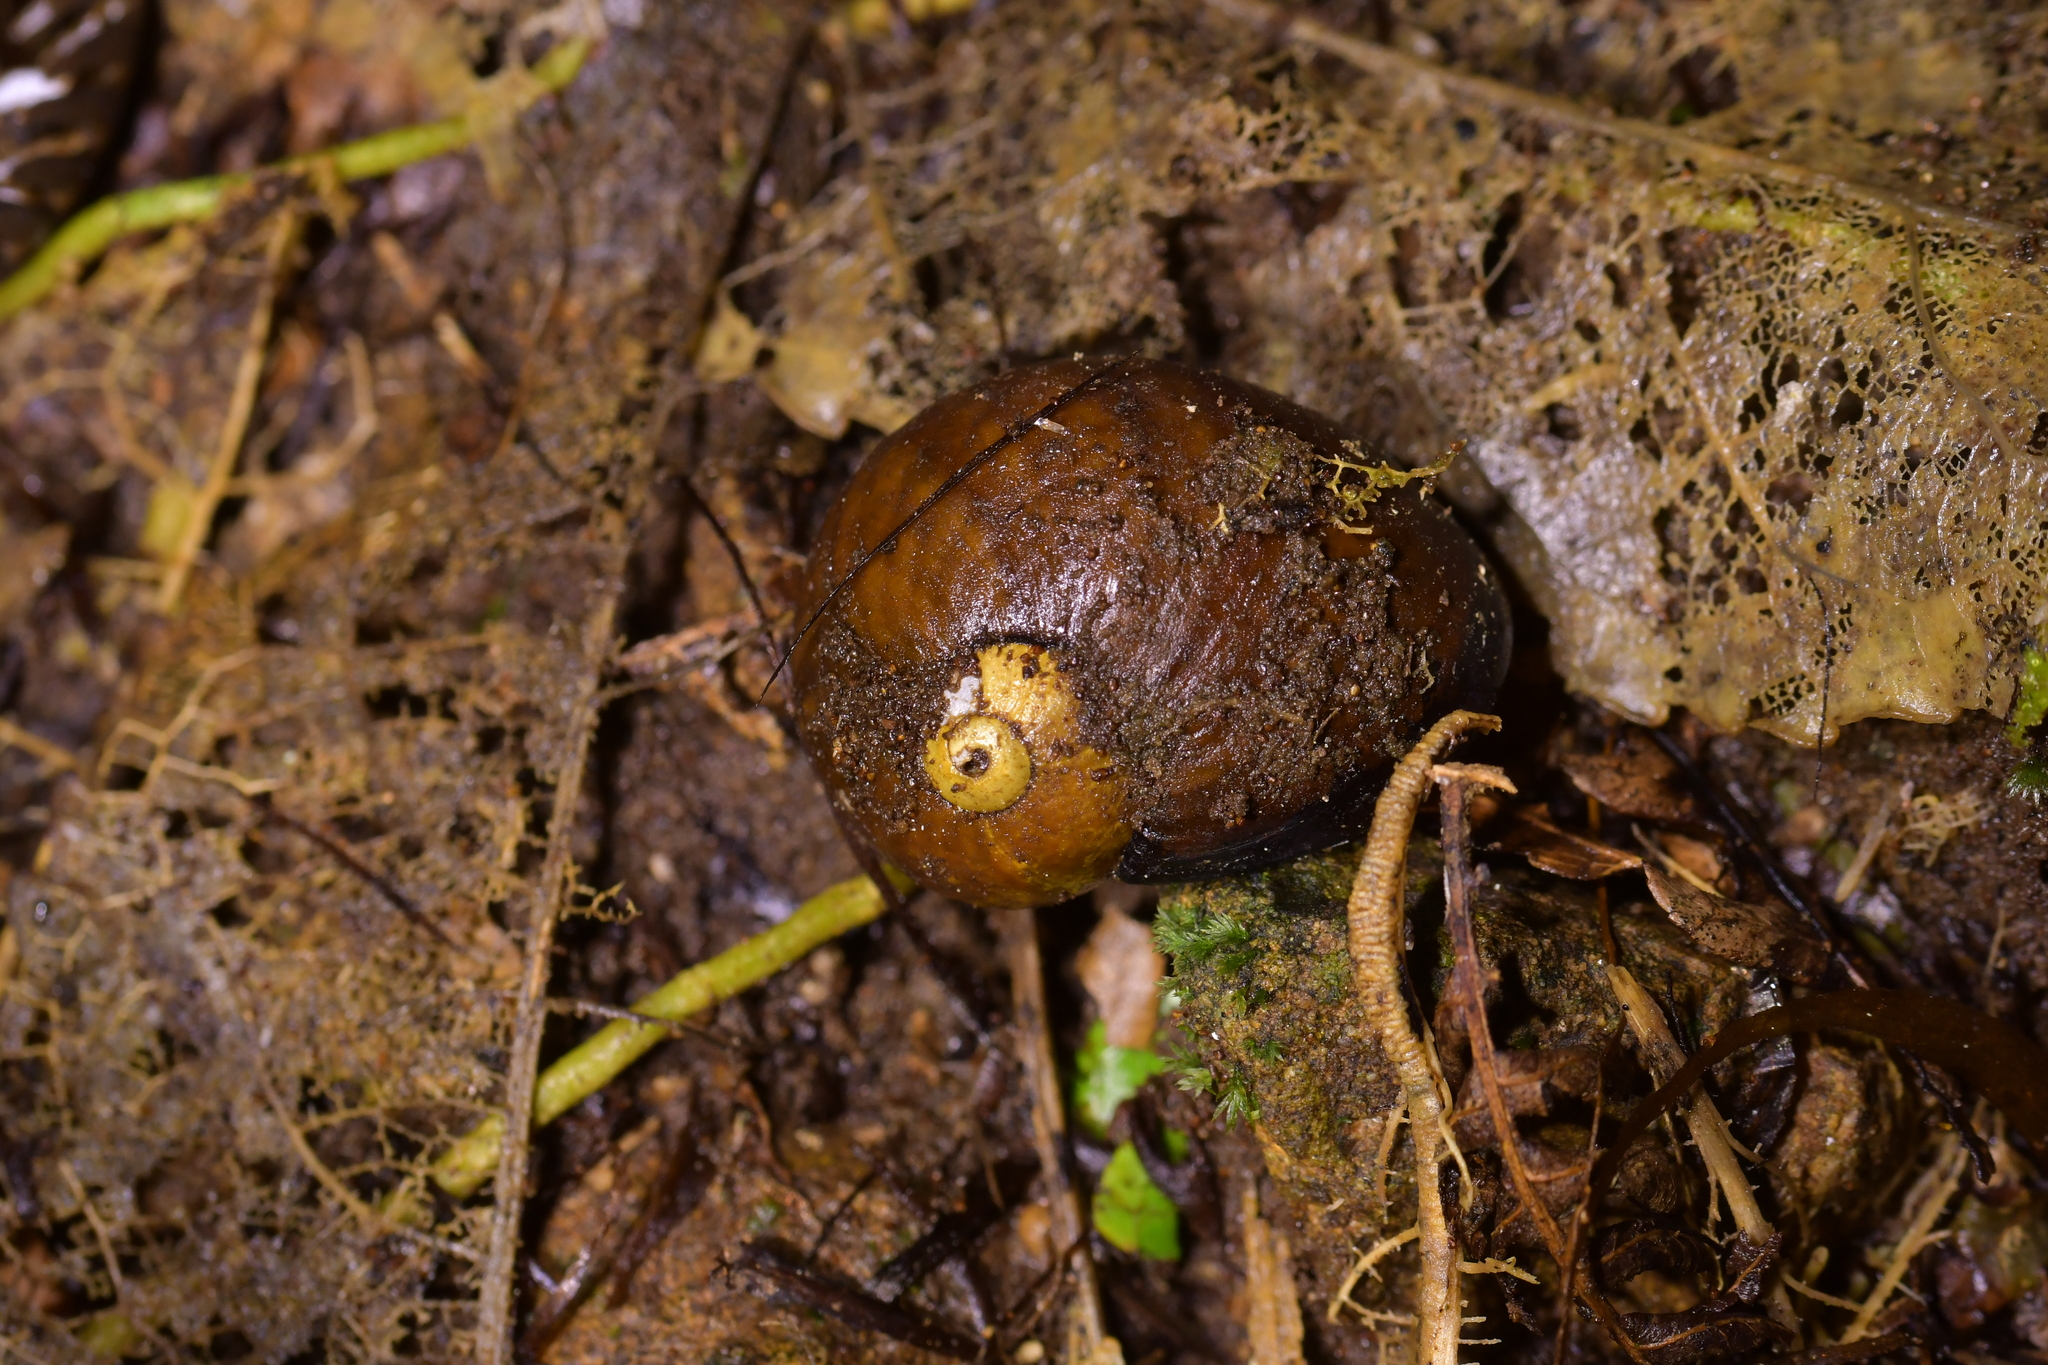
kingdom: Animalia
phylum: Mollusca
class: Gastropoda
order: Stylommatophora
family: Rhytididae
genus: Wainuia
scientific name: Wainuia urnula
